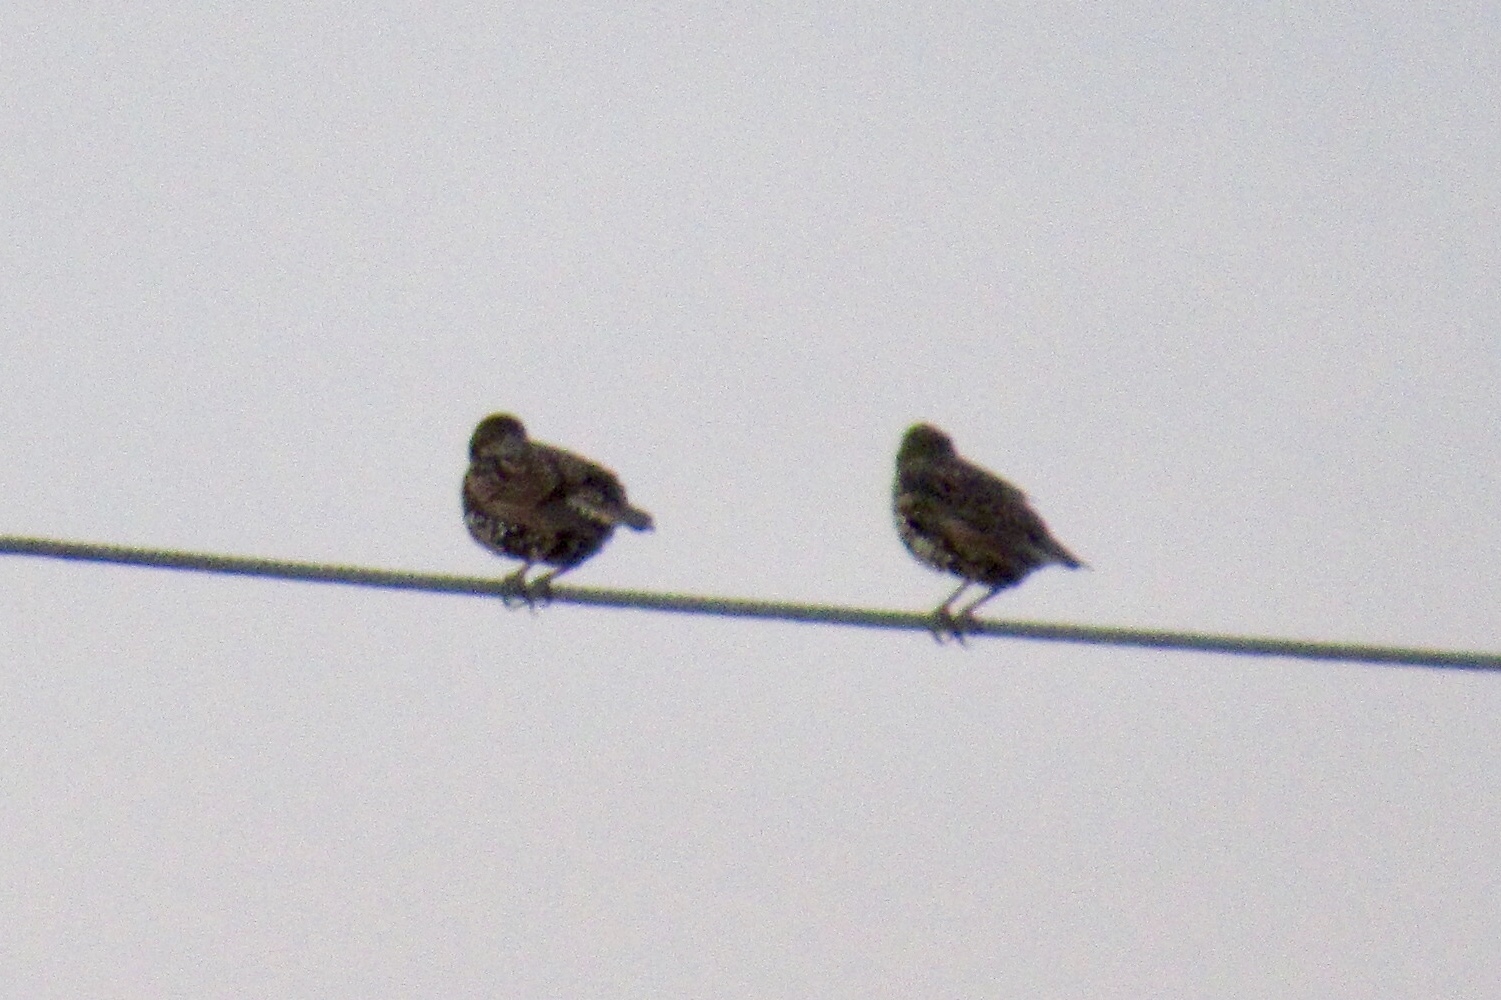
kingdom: Animalia
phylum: Chordata
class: Aves
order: Passeriformes
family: Sturnidae
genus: Sturnus
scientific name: Sturnus vulgaris
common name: Common starling
